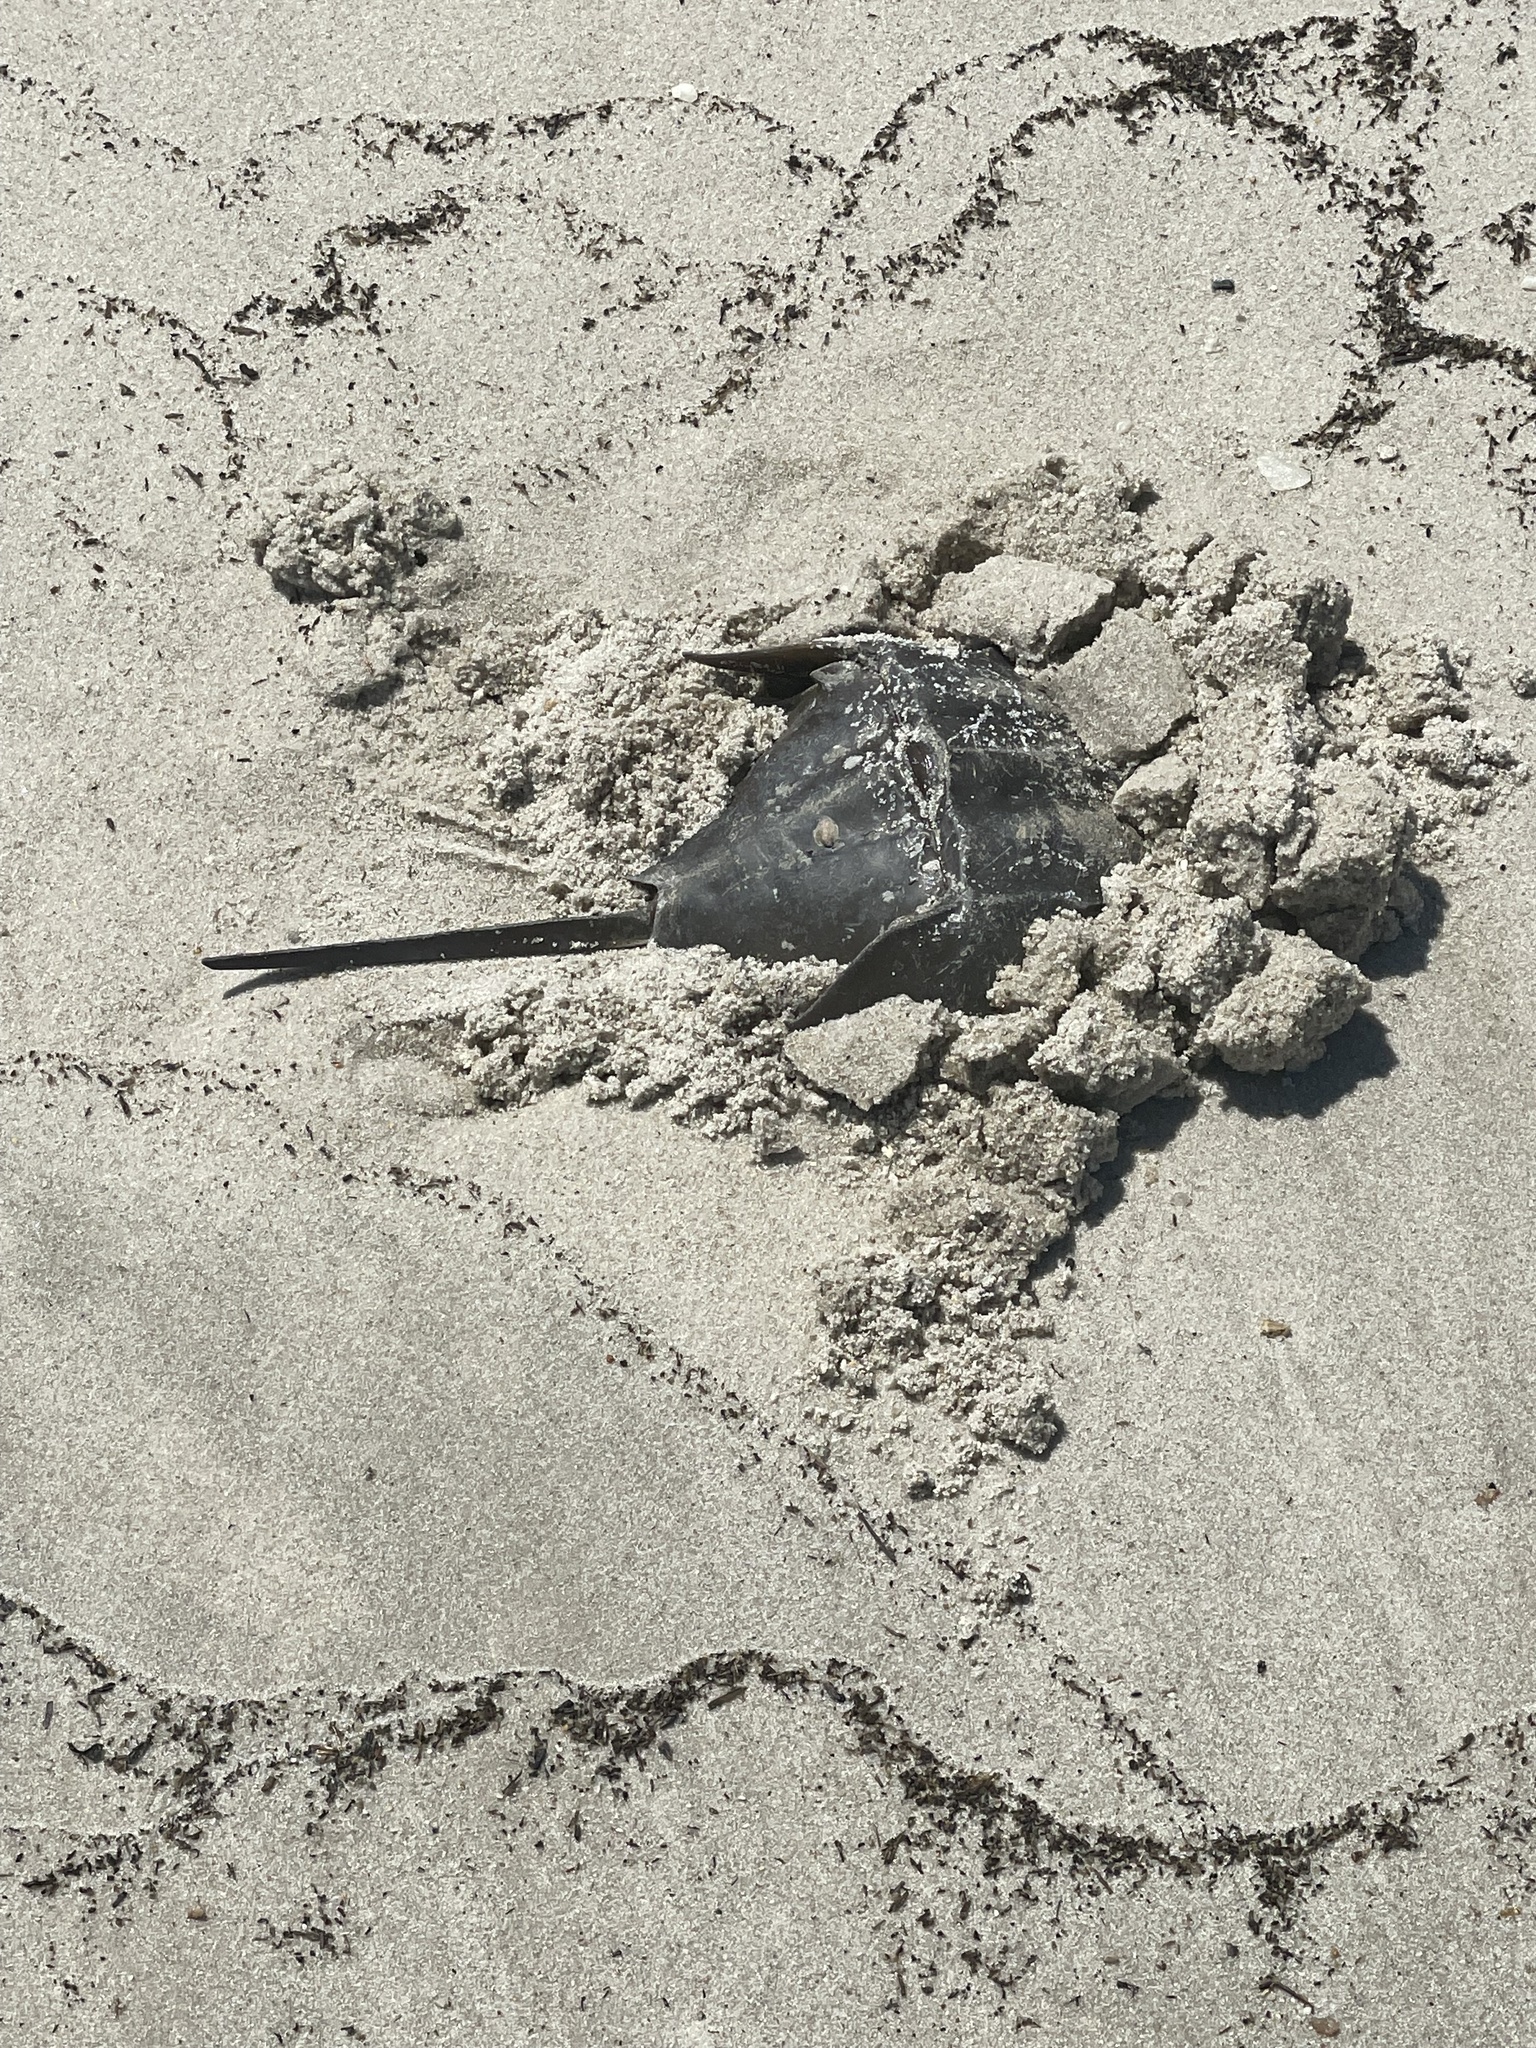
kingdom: Animalia
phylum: Arthropoda
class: Merostomata
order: Xiphosurida
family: Limulidae
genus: Limulus
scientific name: Limulus polyphemus
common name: Horseshoe crab
